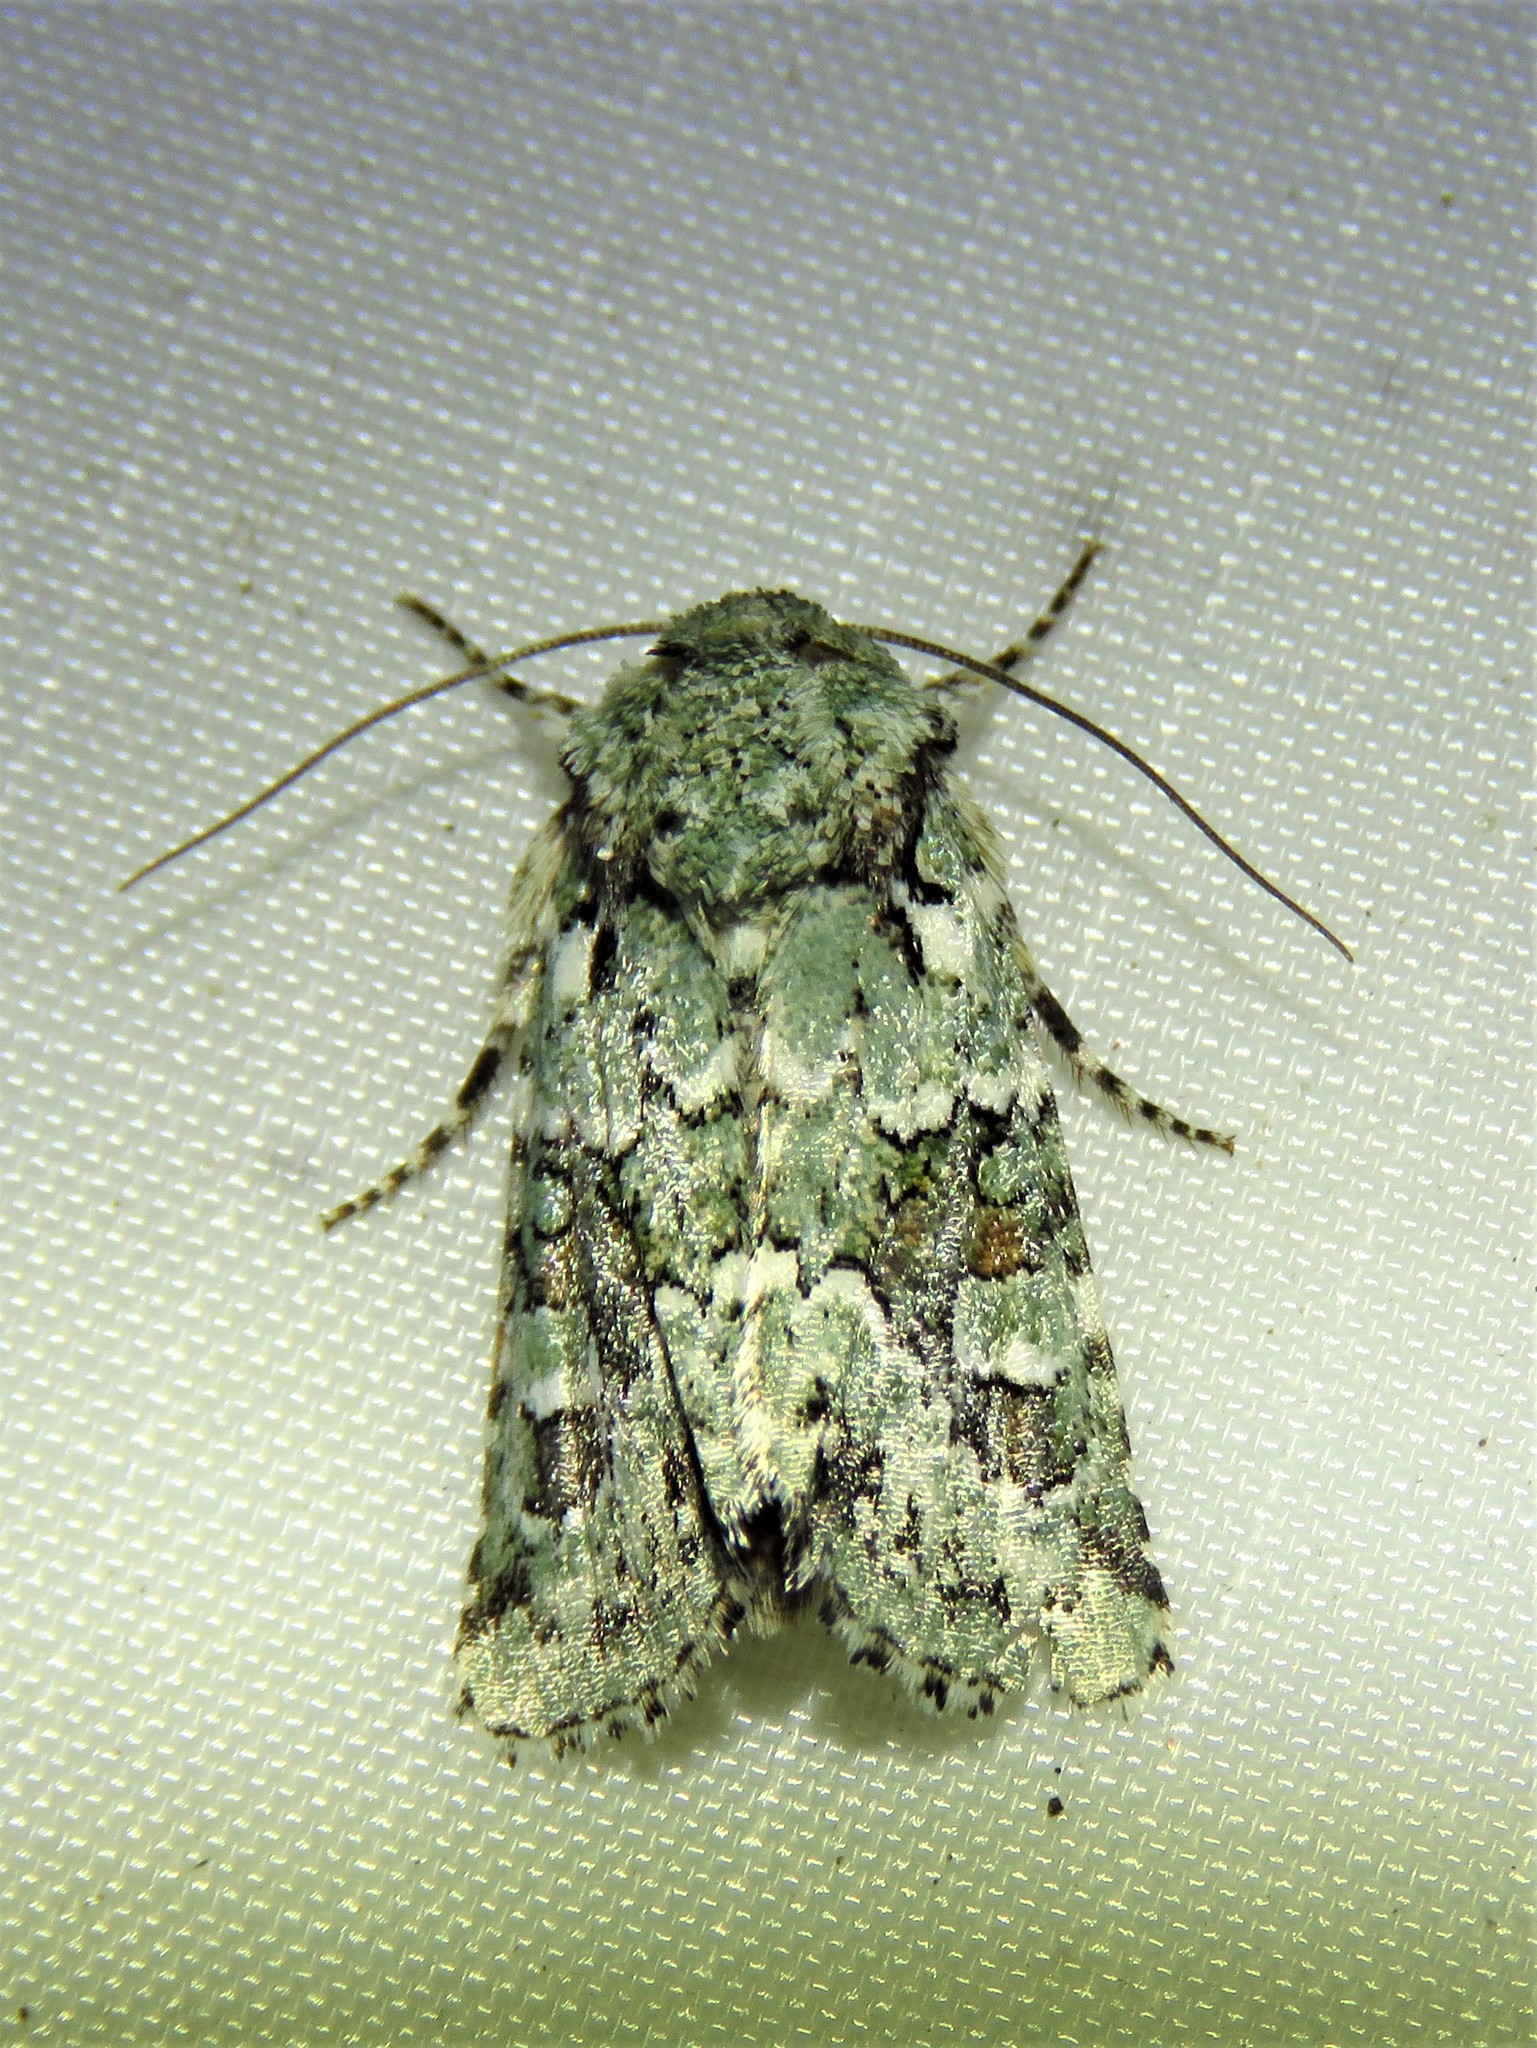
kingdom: Animalia
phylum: Arthropoda
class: Insecta
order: Lepidoptera
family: Noctuidae
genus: Lacinipolia
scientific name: Lacinipolia laudabilis
